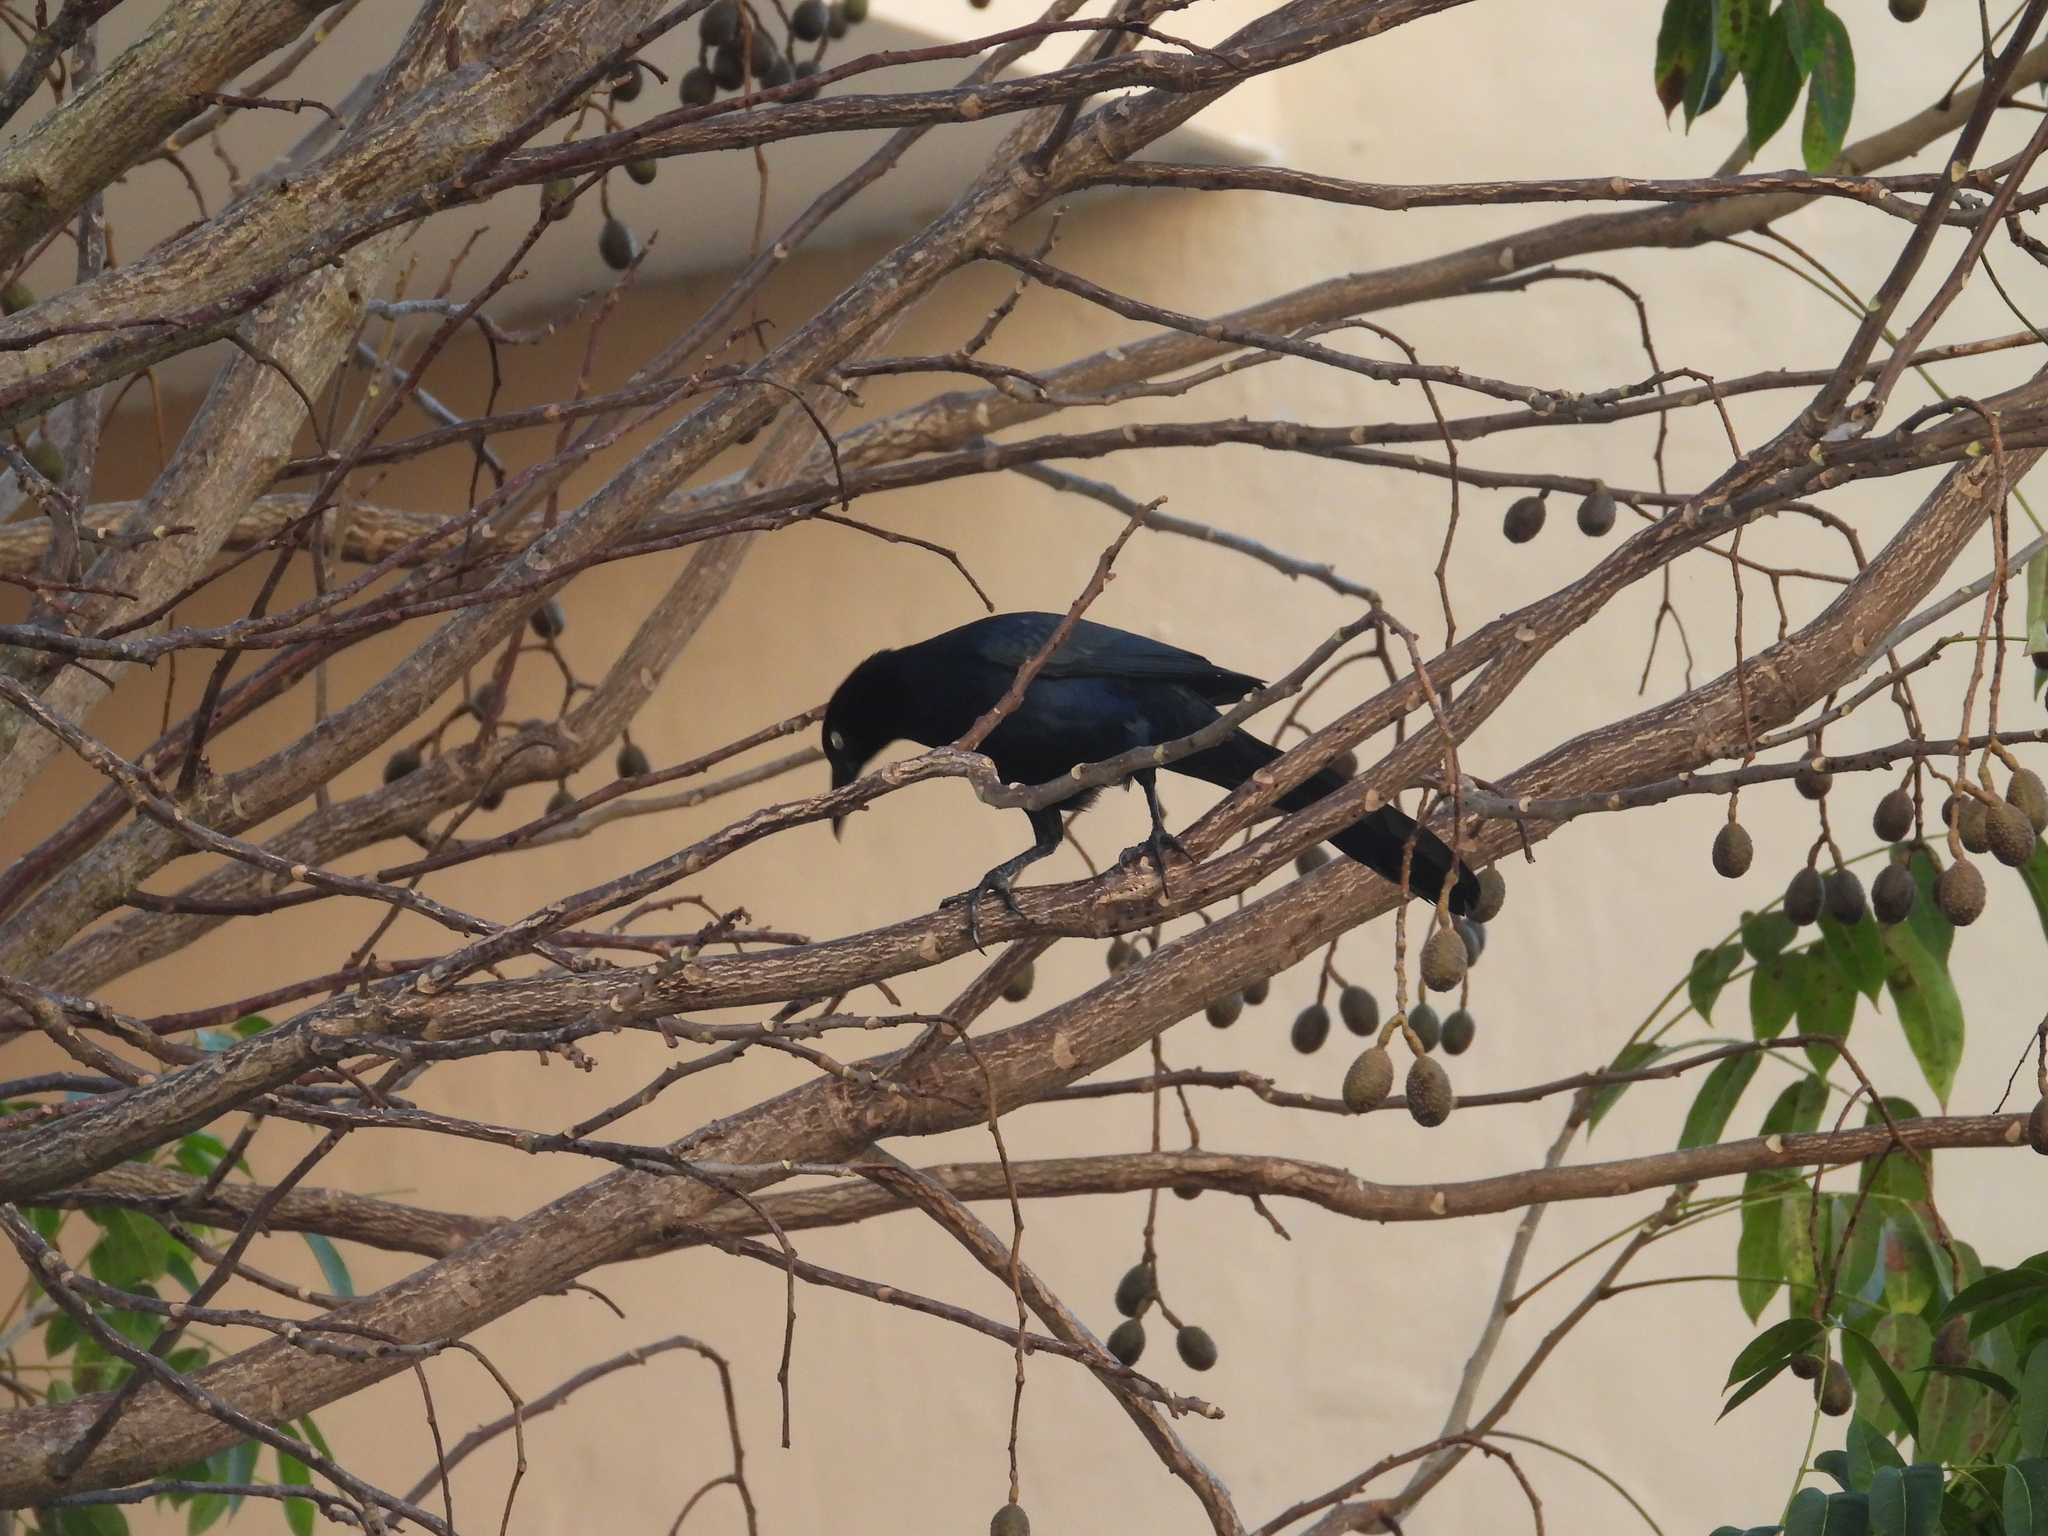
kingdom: Animalia
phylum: Chordata
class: Aves
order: Passeriformes
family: Icteridae
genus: Quiscalus
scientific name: Quiscalus mexicanus
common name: Great-tailed grackle
